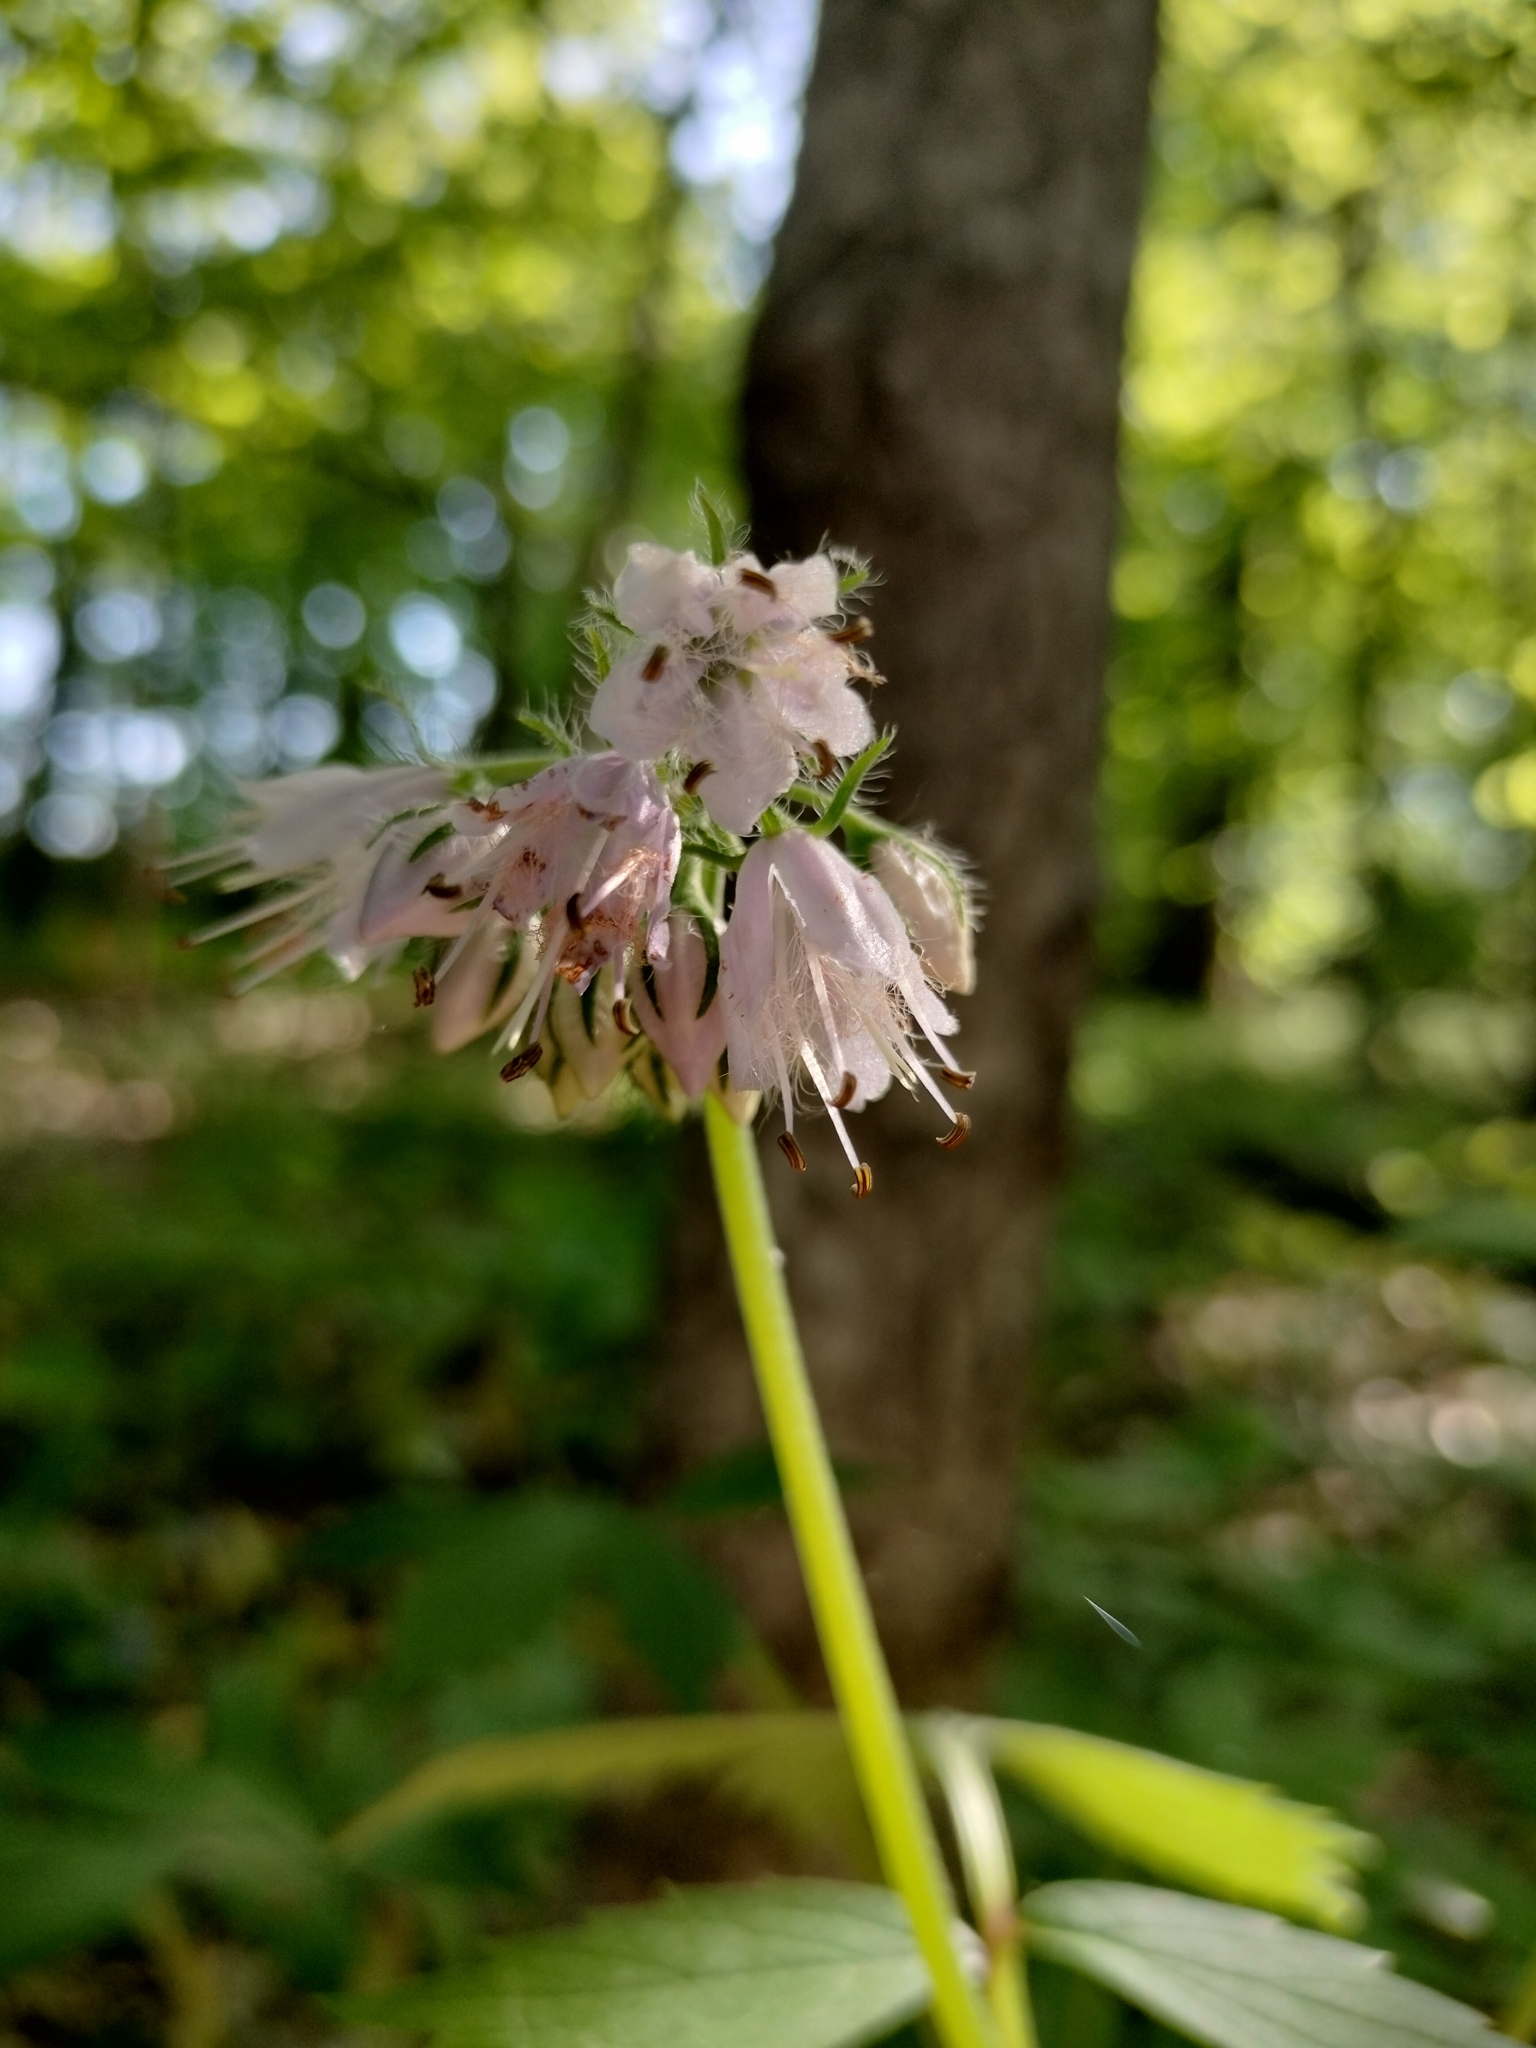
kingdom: Plantae
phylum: Tracheophyta
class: Magnoliopsida
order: Boraginales
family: Hydrophyllaceae
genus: Hydrophyllum
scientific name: Hydrophyllum virginianum
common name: Virginia waterleaf
